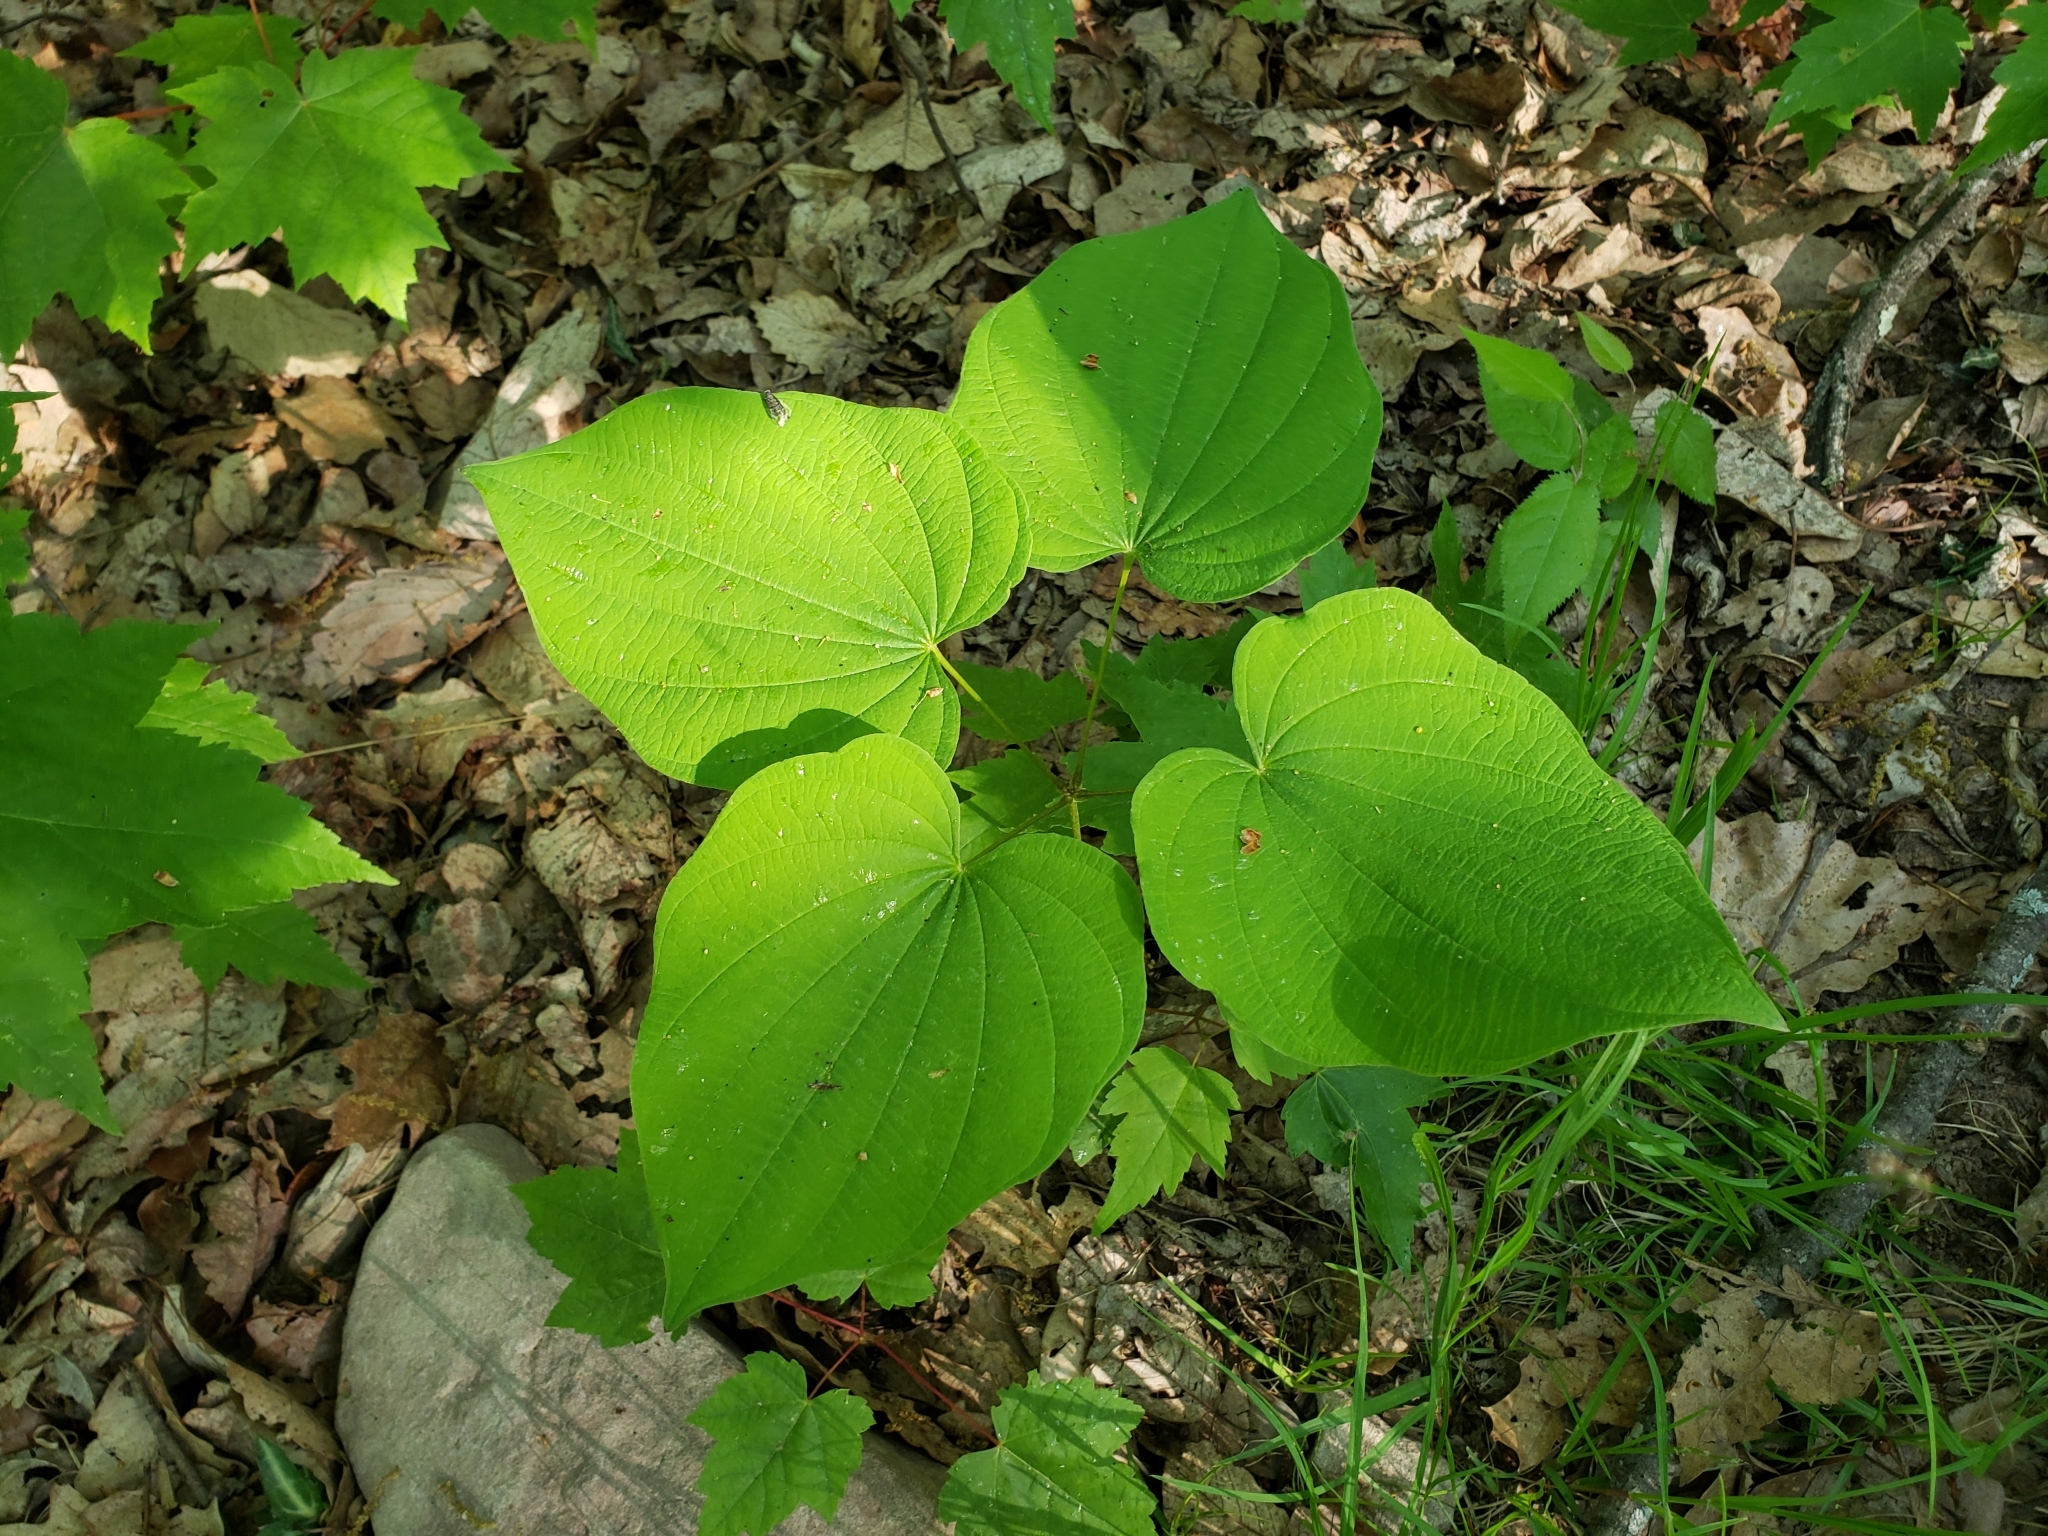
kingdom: Plantae
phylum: Tracheophyta
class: Liliopsida
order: Dioscoreales
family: Dioscoreaceae
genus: Dioscorea
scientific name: Dioscorea villosa
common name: Wild yam
